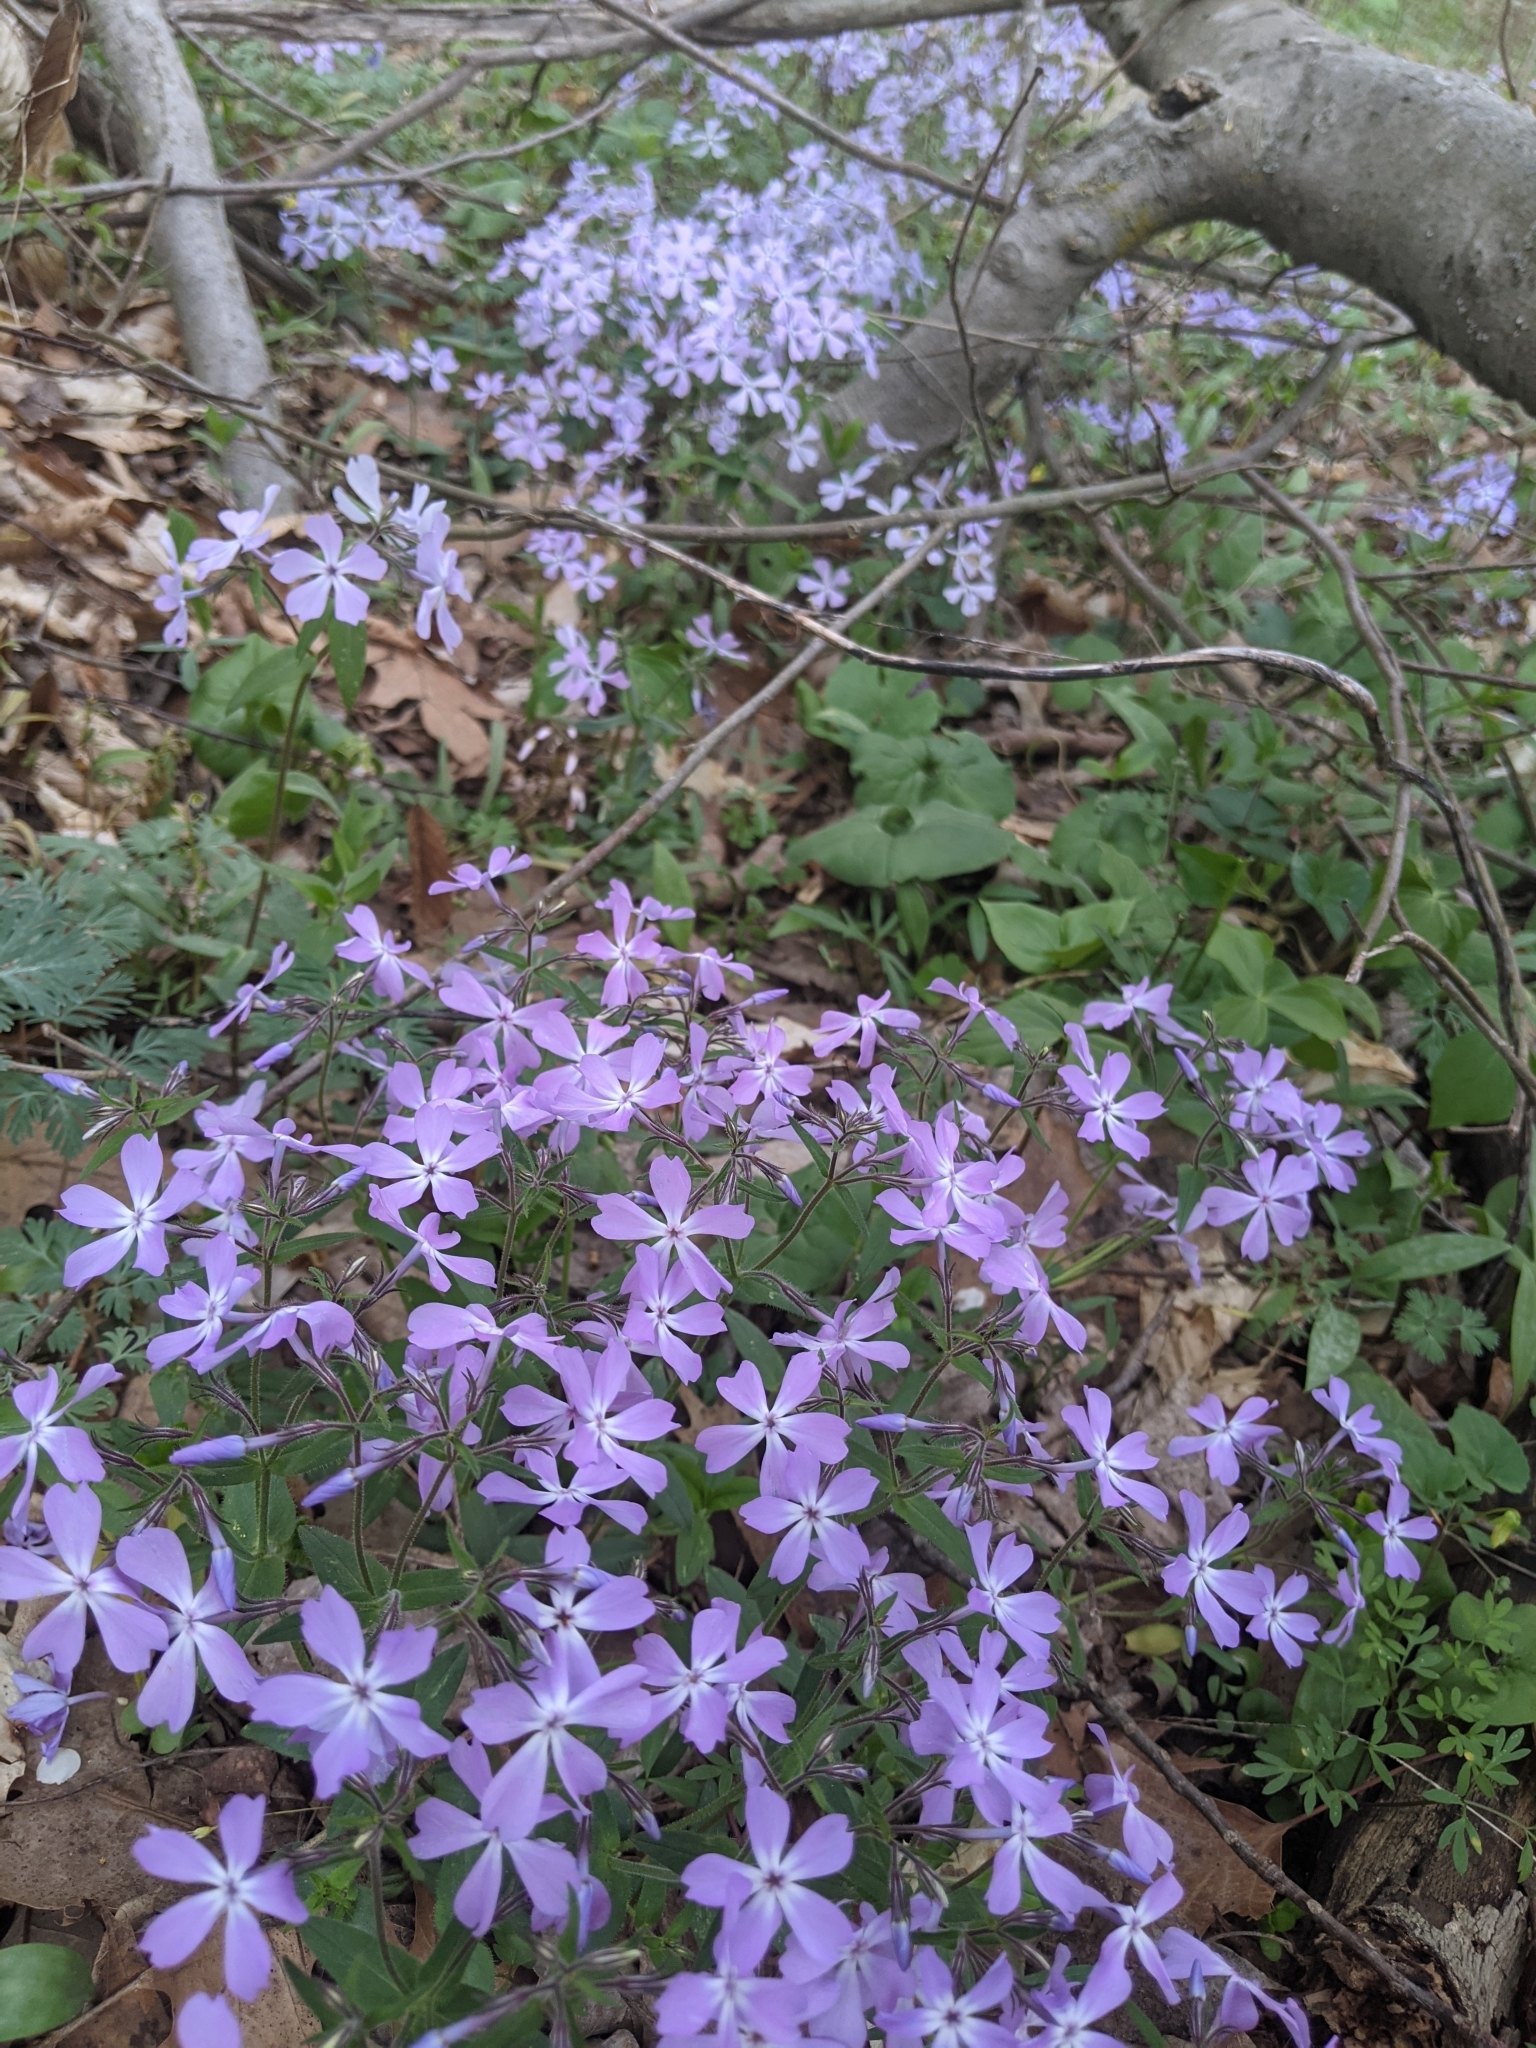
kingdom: Plantae
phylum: Tracheophyta
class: Magnoliopsida
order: Ericales
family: Polemoniaceae
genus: Phlox
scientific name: Phlox divaricata
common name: Blue phlox
